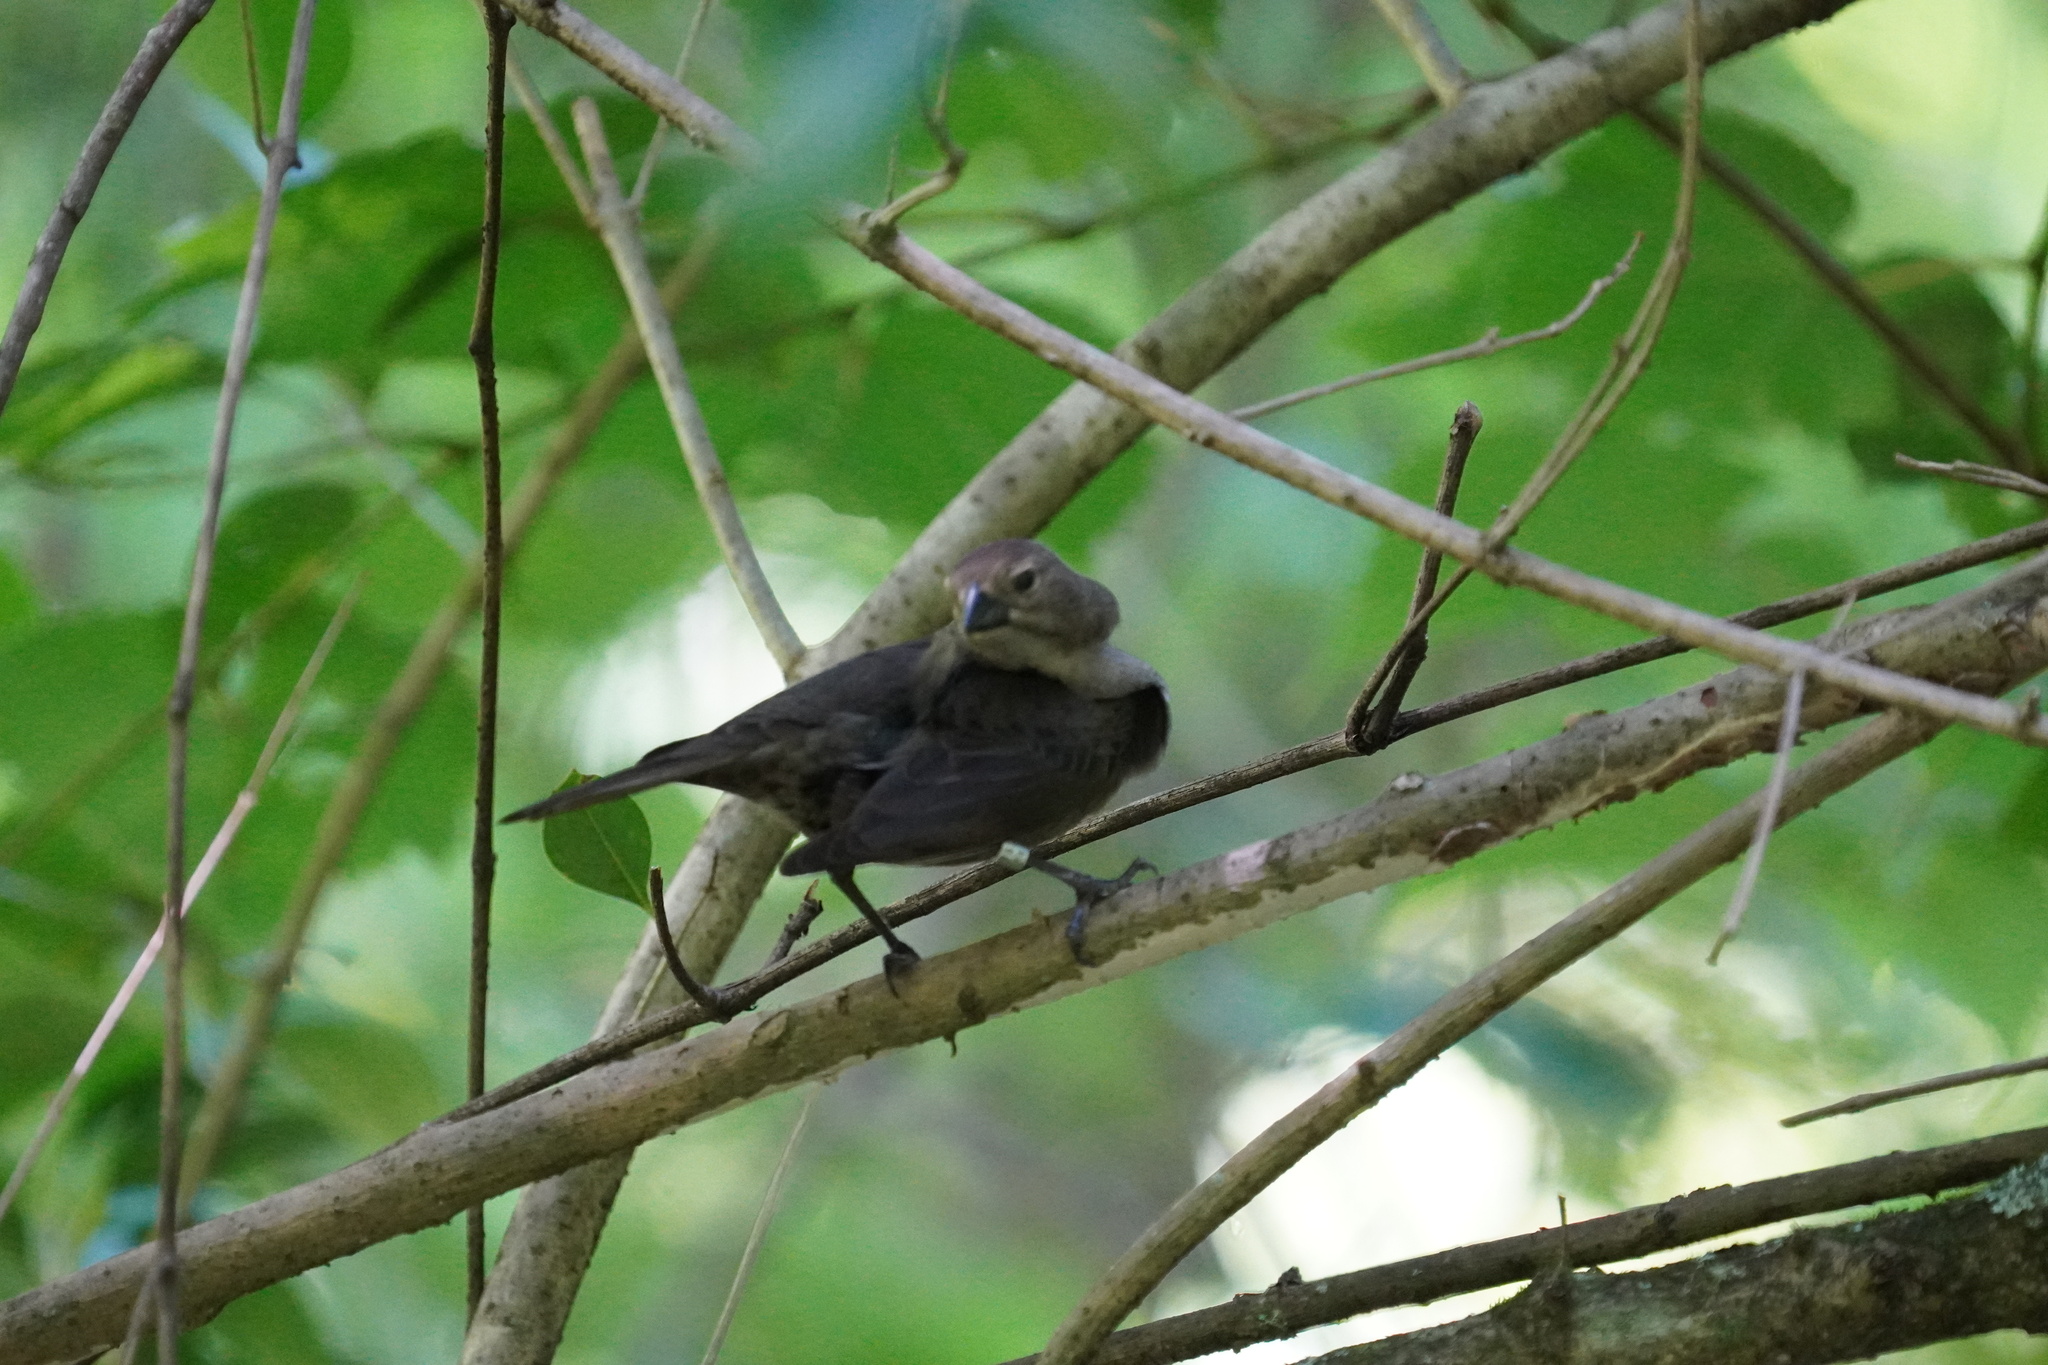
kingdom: Animalia
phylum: Chordata
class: Aves
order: Passeriformes
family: Icteridae
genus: Molothrus
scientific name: Molothrus ater
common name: Brown-headed cowbird
